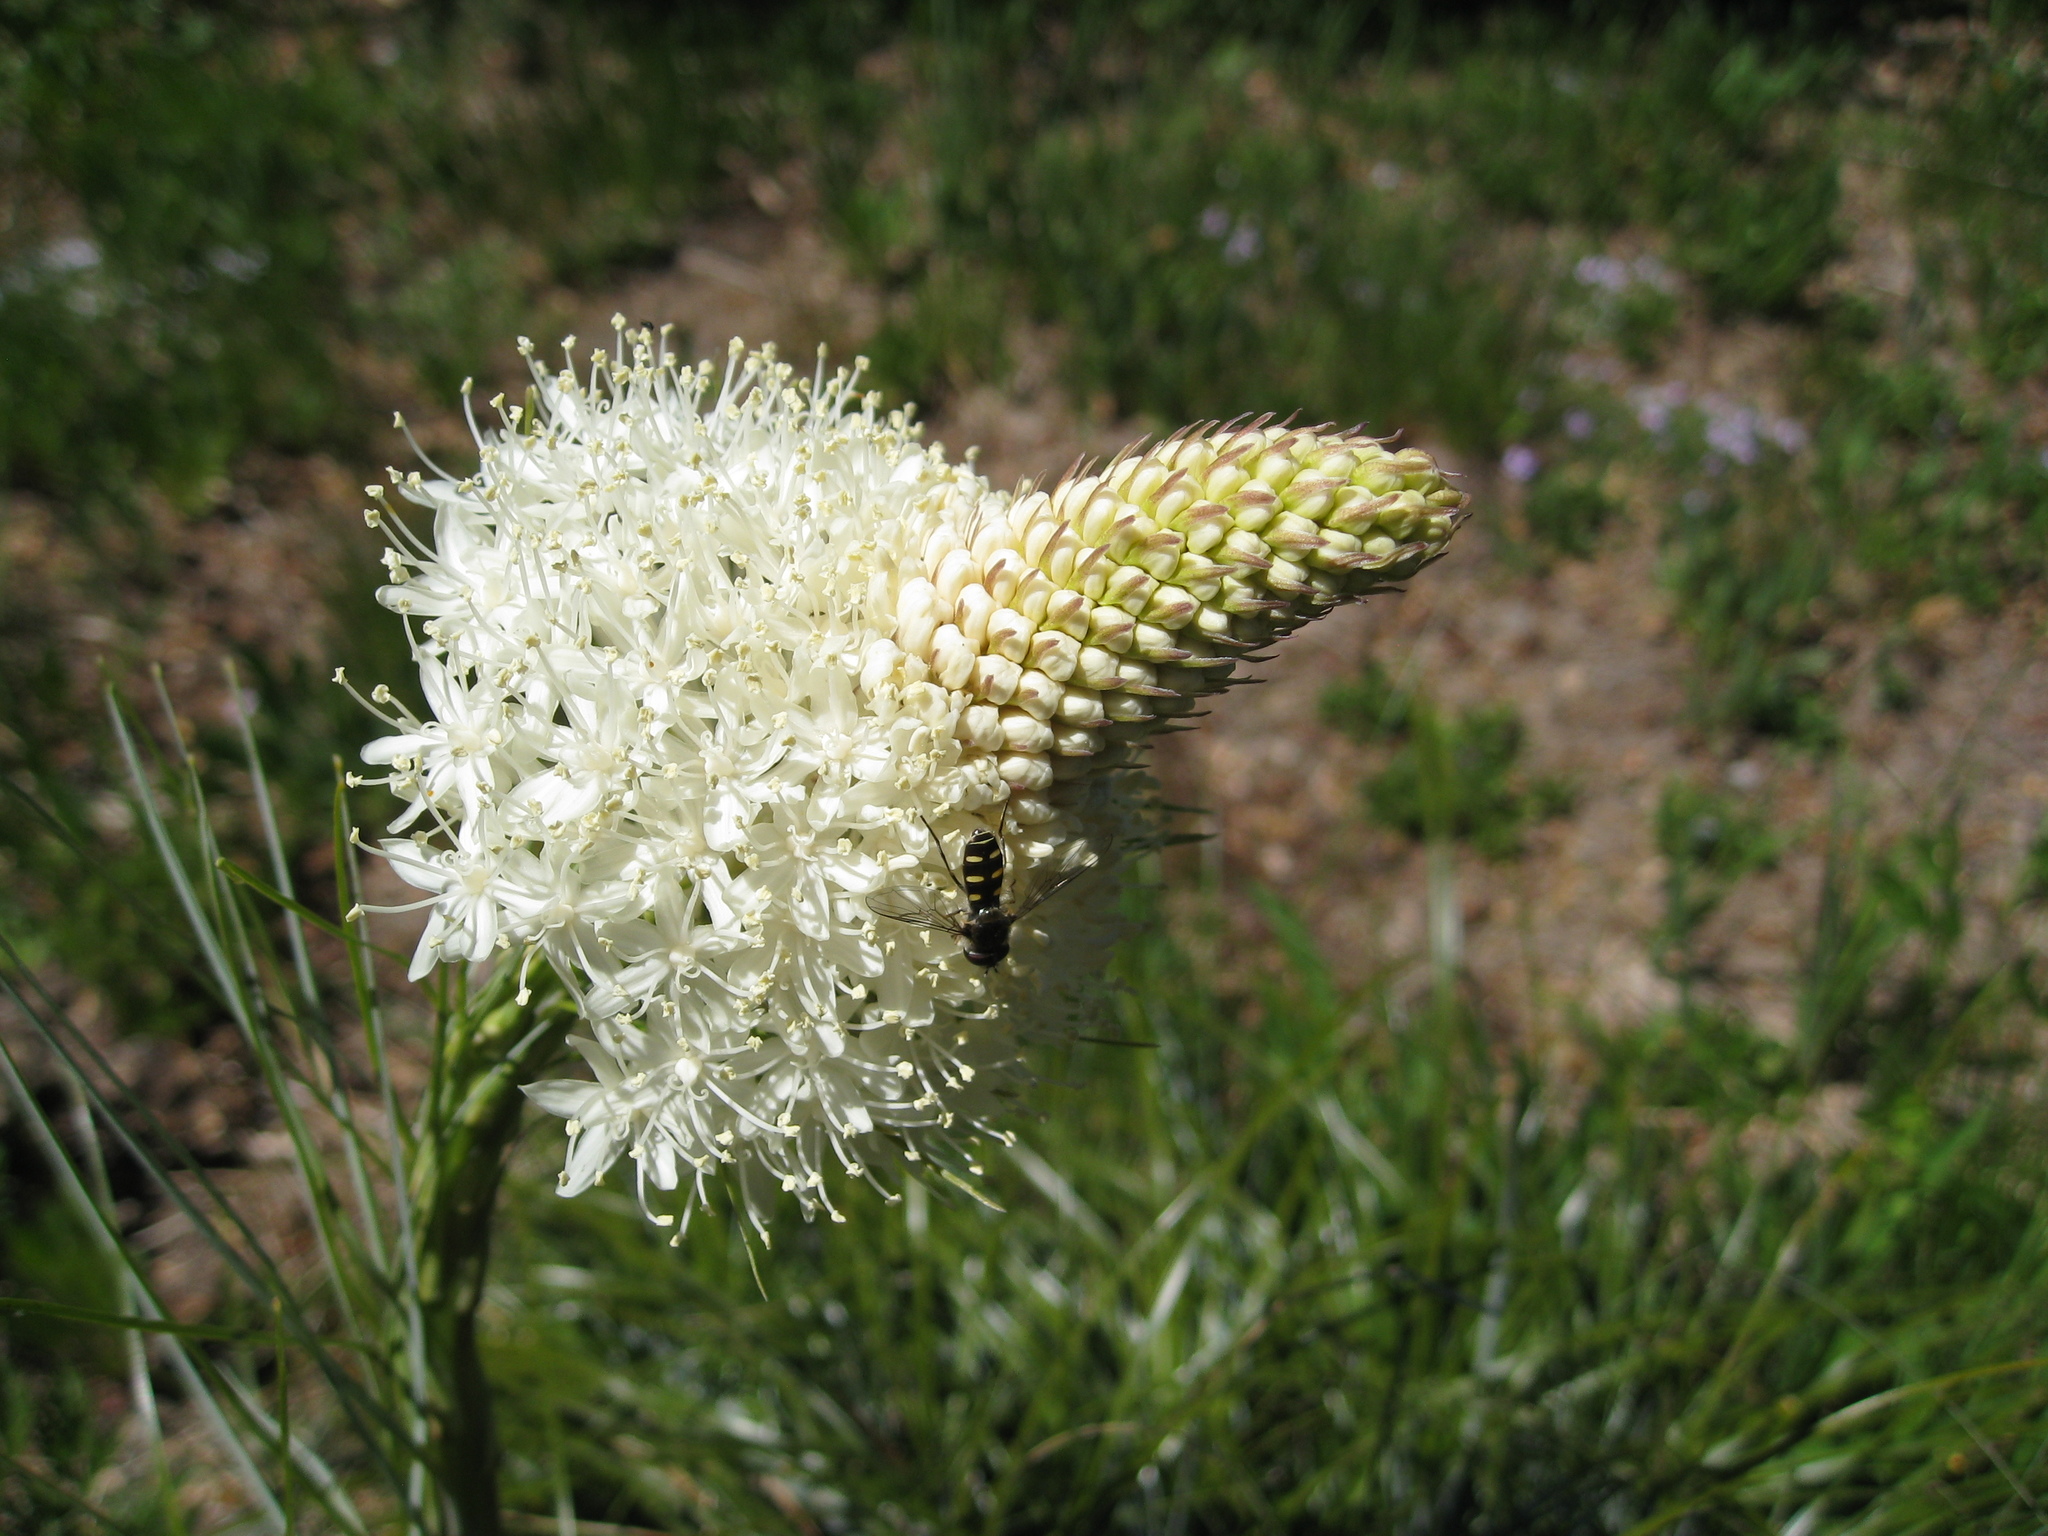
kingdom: Plantae
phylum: Tracheophyta
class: Liliopsida
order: Liliales
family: Melanthiaceae
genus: Xerophyllum
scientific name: Xerophyllum tenax
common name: Bear-grass
